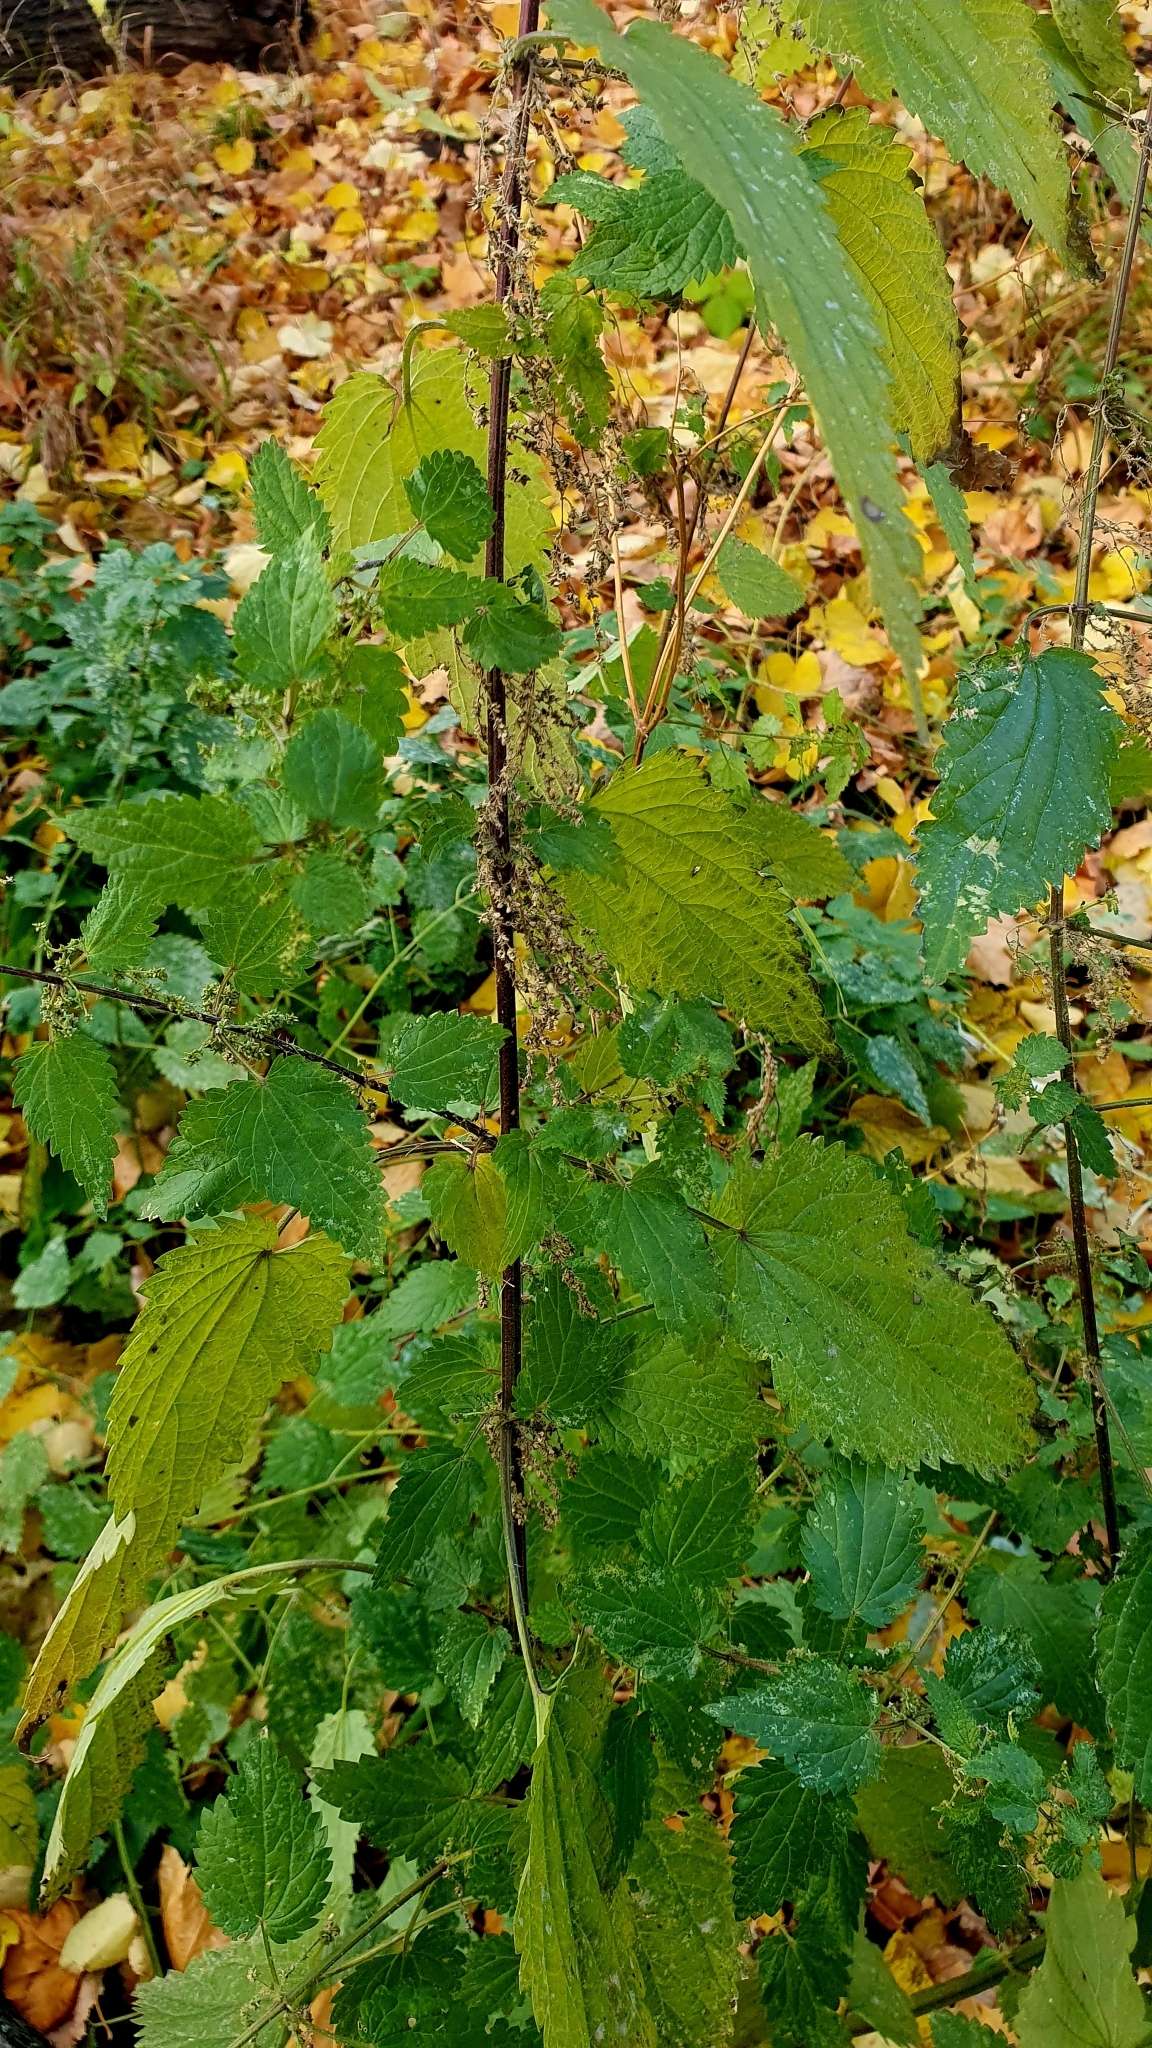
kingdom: Plantae
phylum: Tracheophyta
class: Magnoliopsida
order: Rosales
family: Urticaceae
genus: Urtica
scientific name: Urtica dioica
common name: Common nettle
